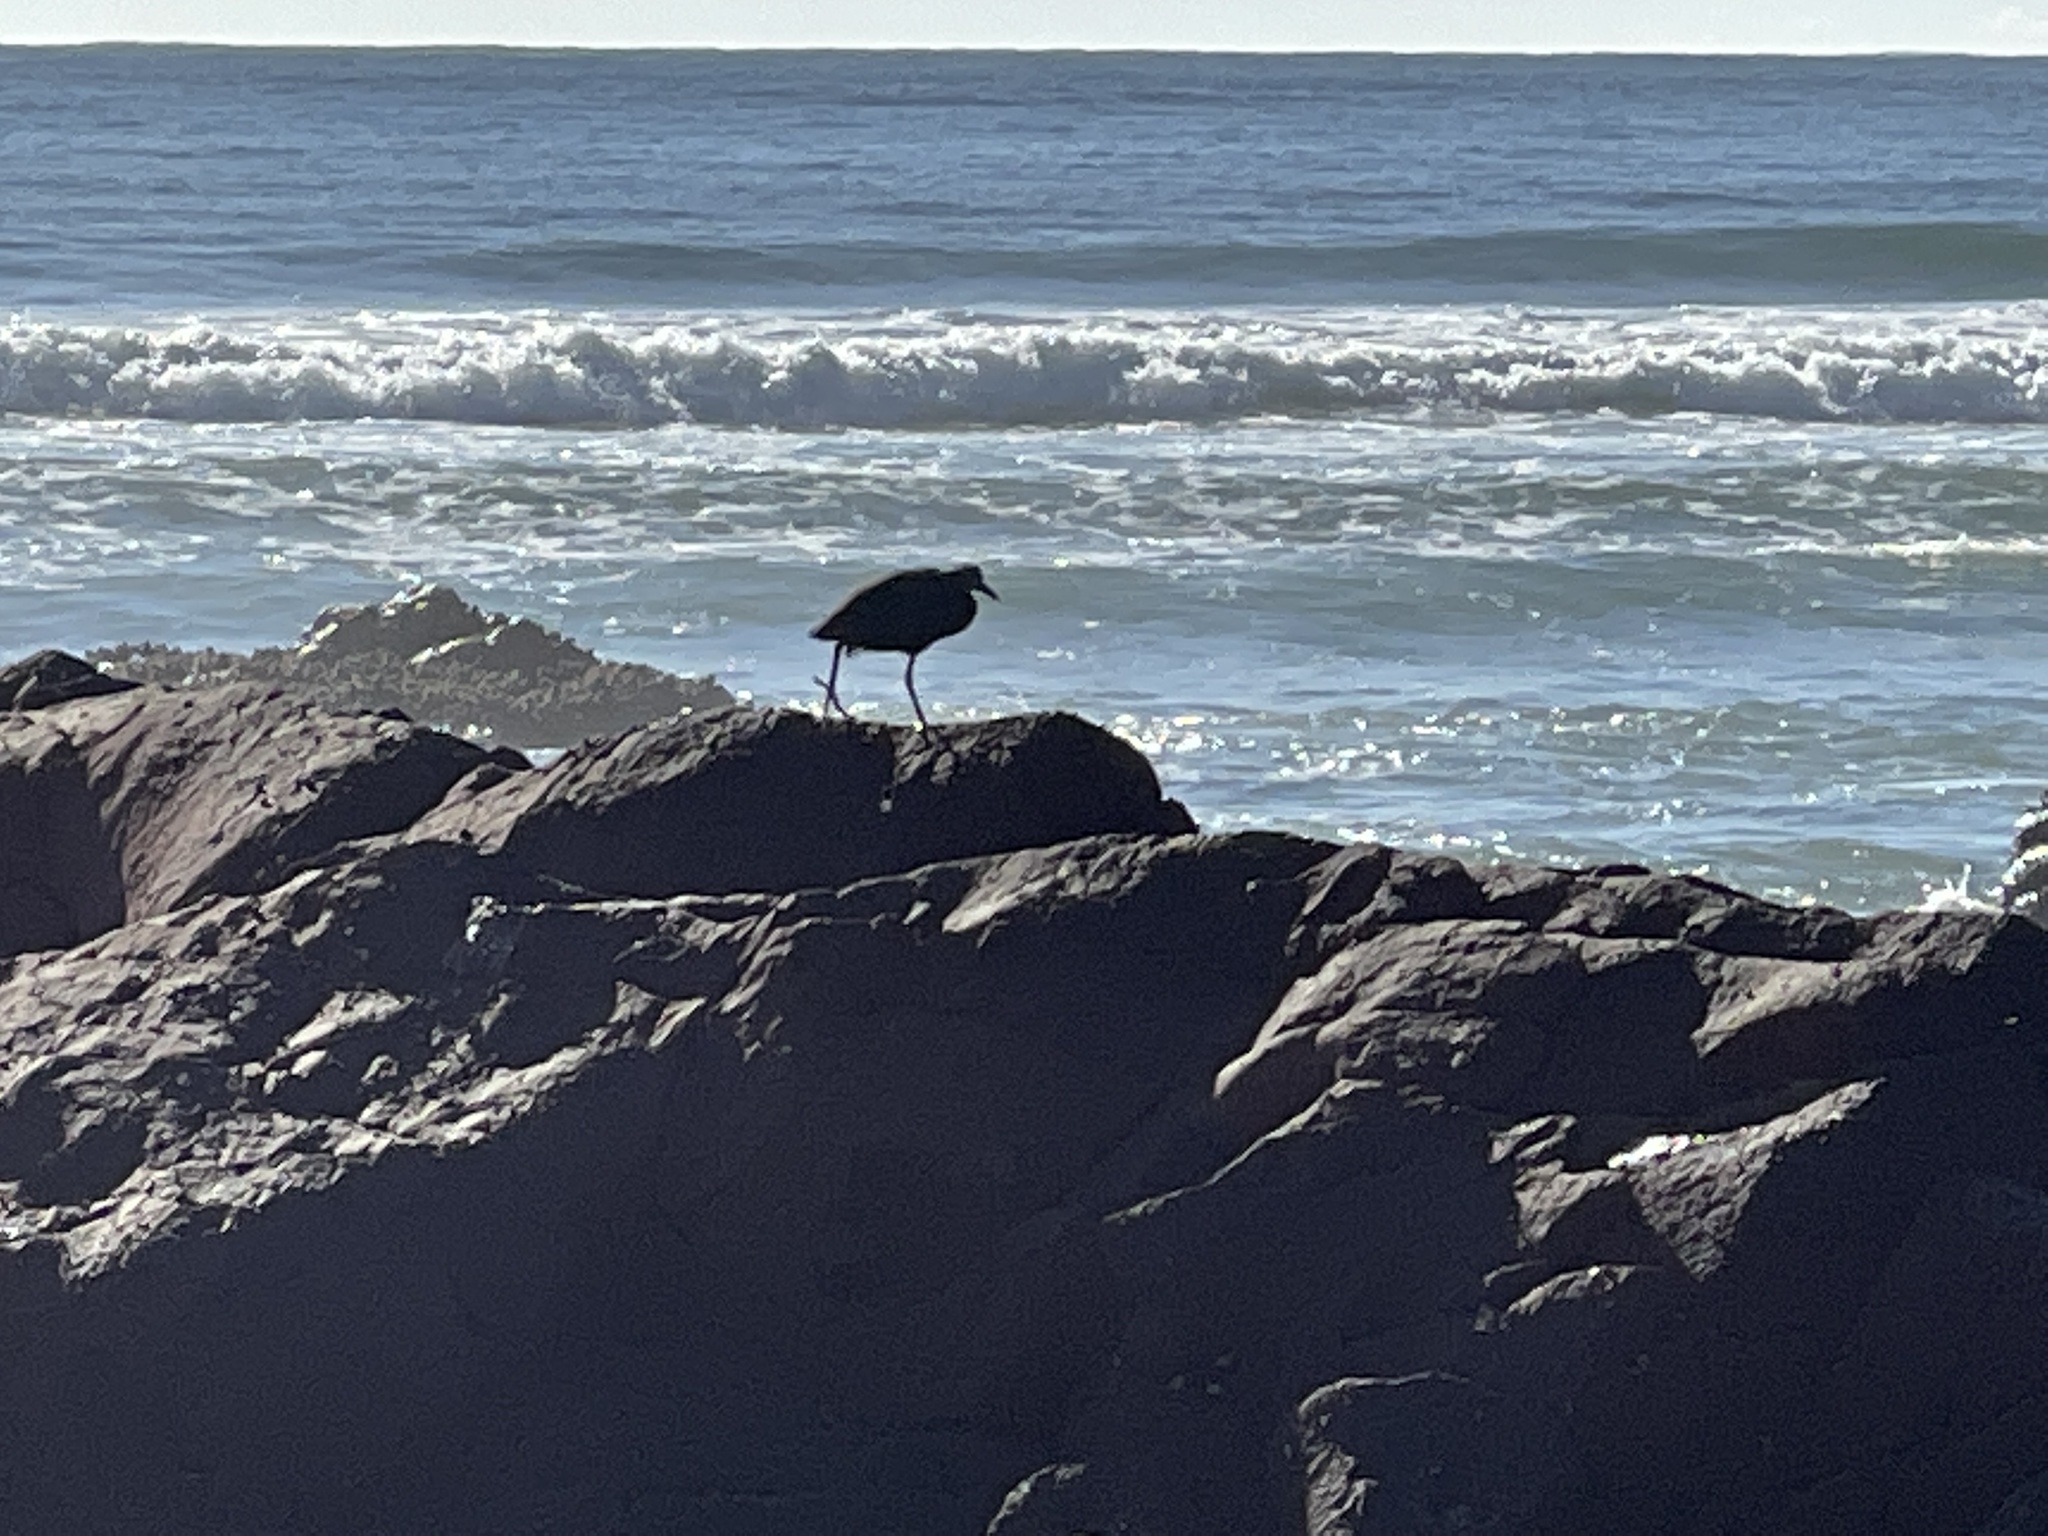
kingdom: Animalia
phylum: Chordata
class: Aves
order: Pelecaniformes
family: Ardeidae
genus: Egretta
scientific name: Egretta sacra
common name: Pacific reef heron
